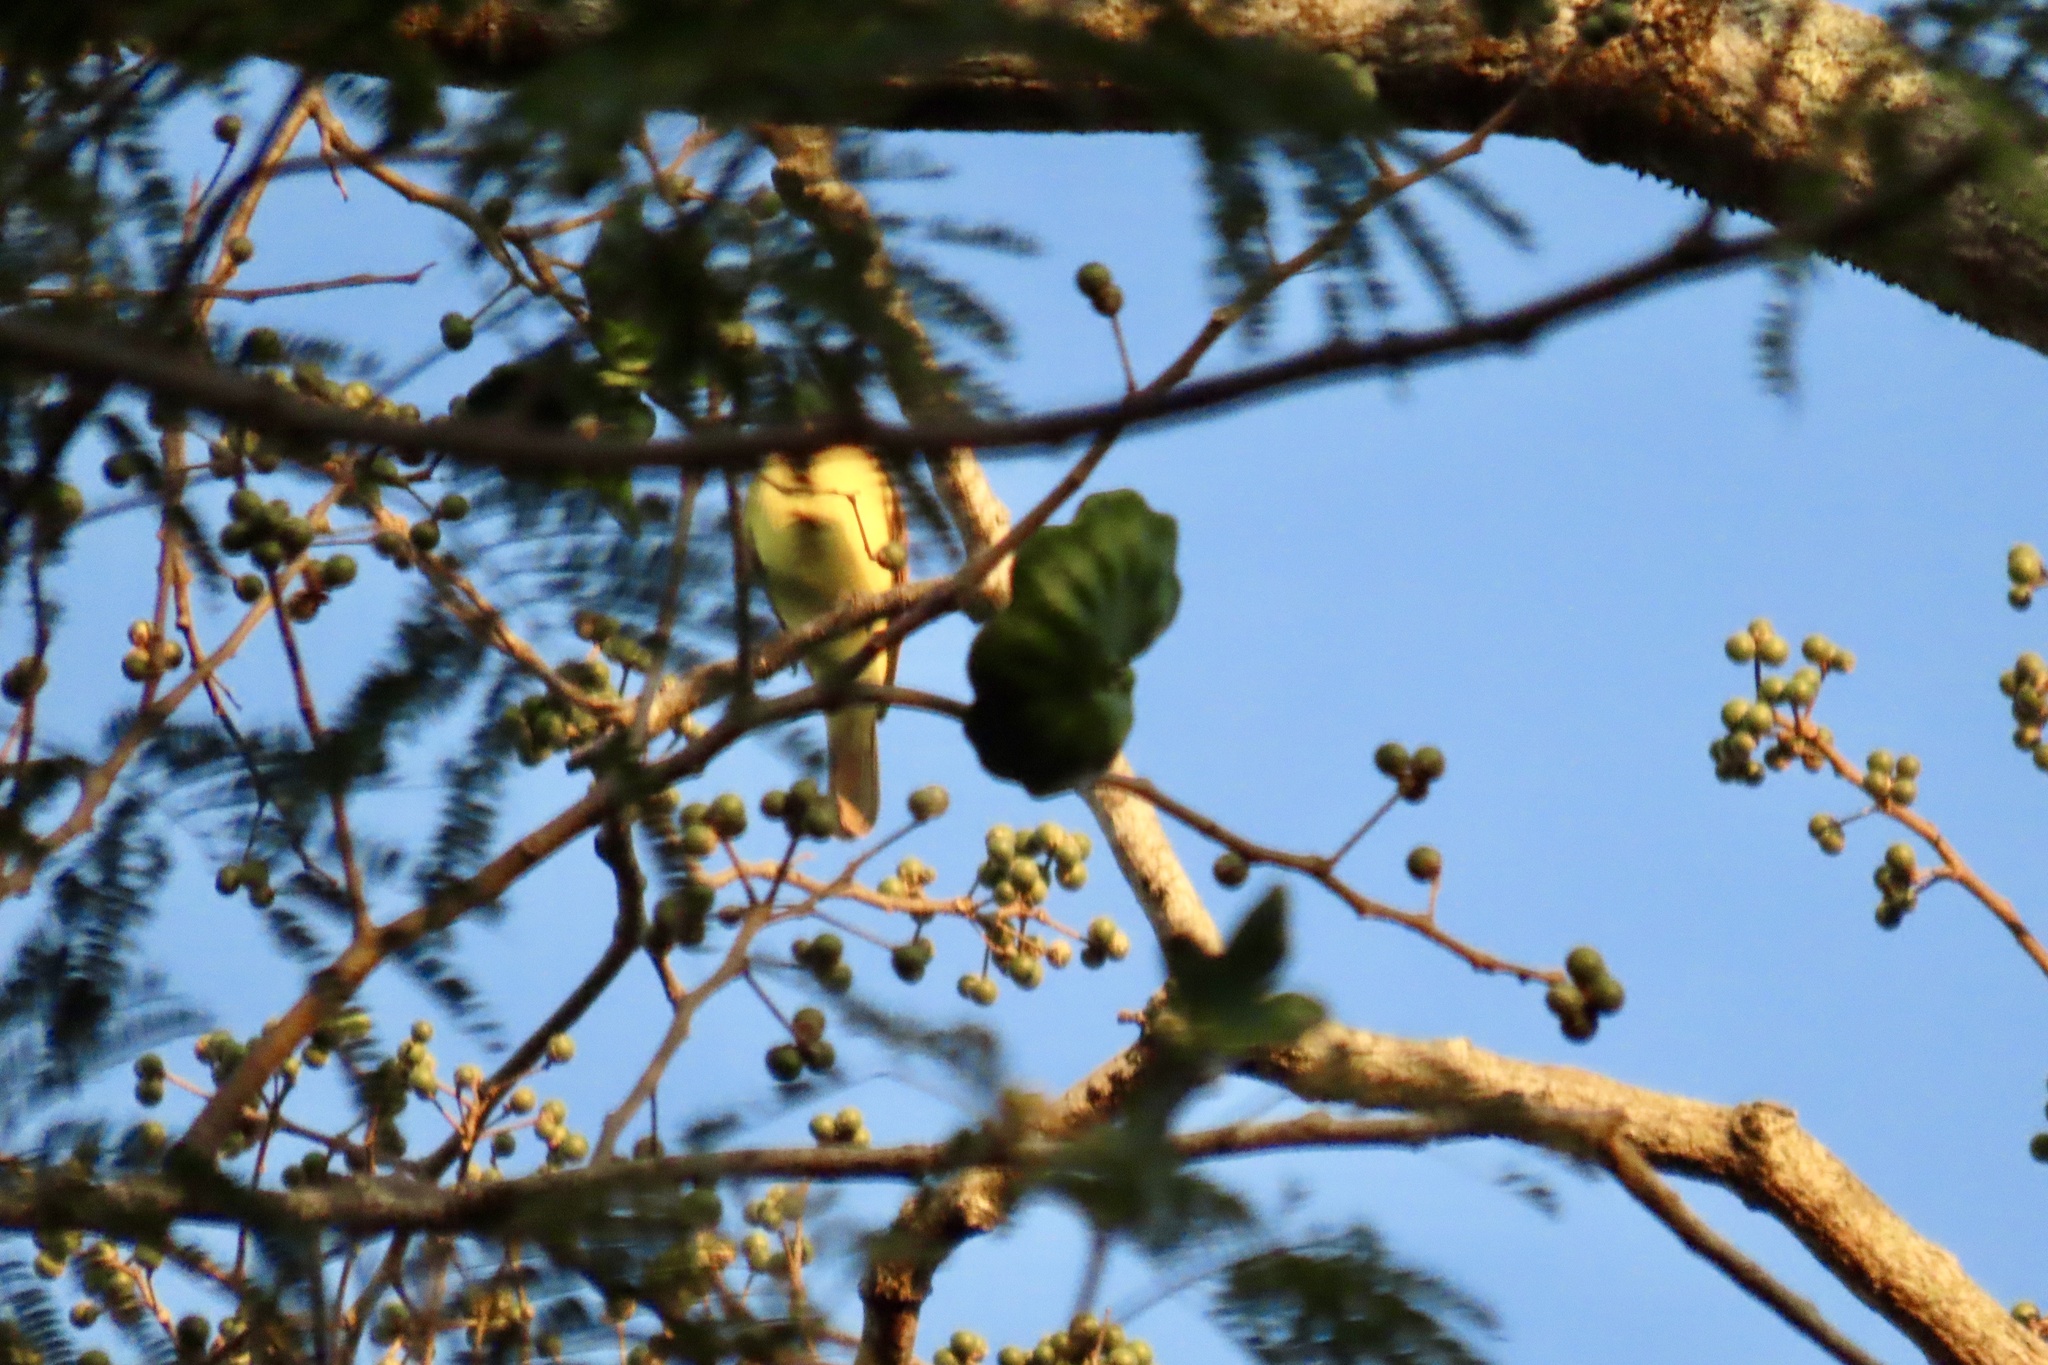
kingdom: Animalia
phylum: Chordata
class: Aves
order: Passeriformes
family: Tyrannidae
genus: Pitangus
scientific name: Pitangus sulphuratus
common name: Great kiskadee
